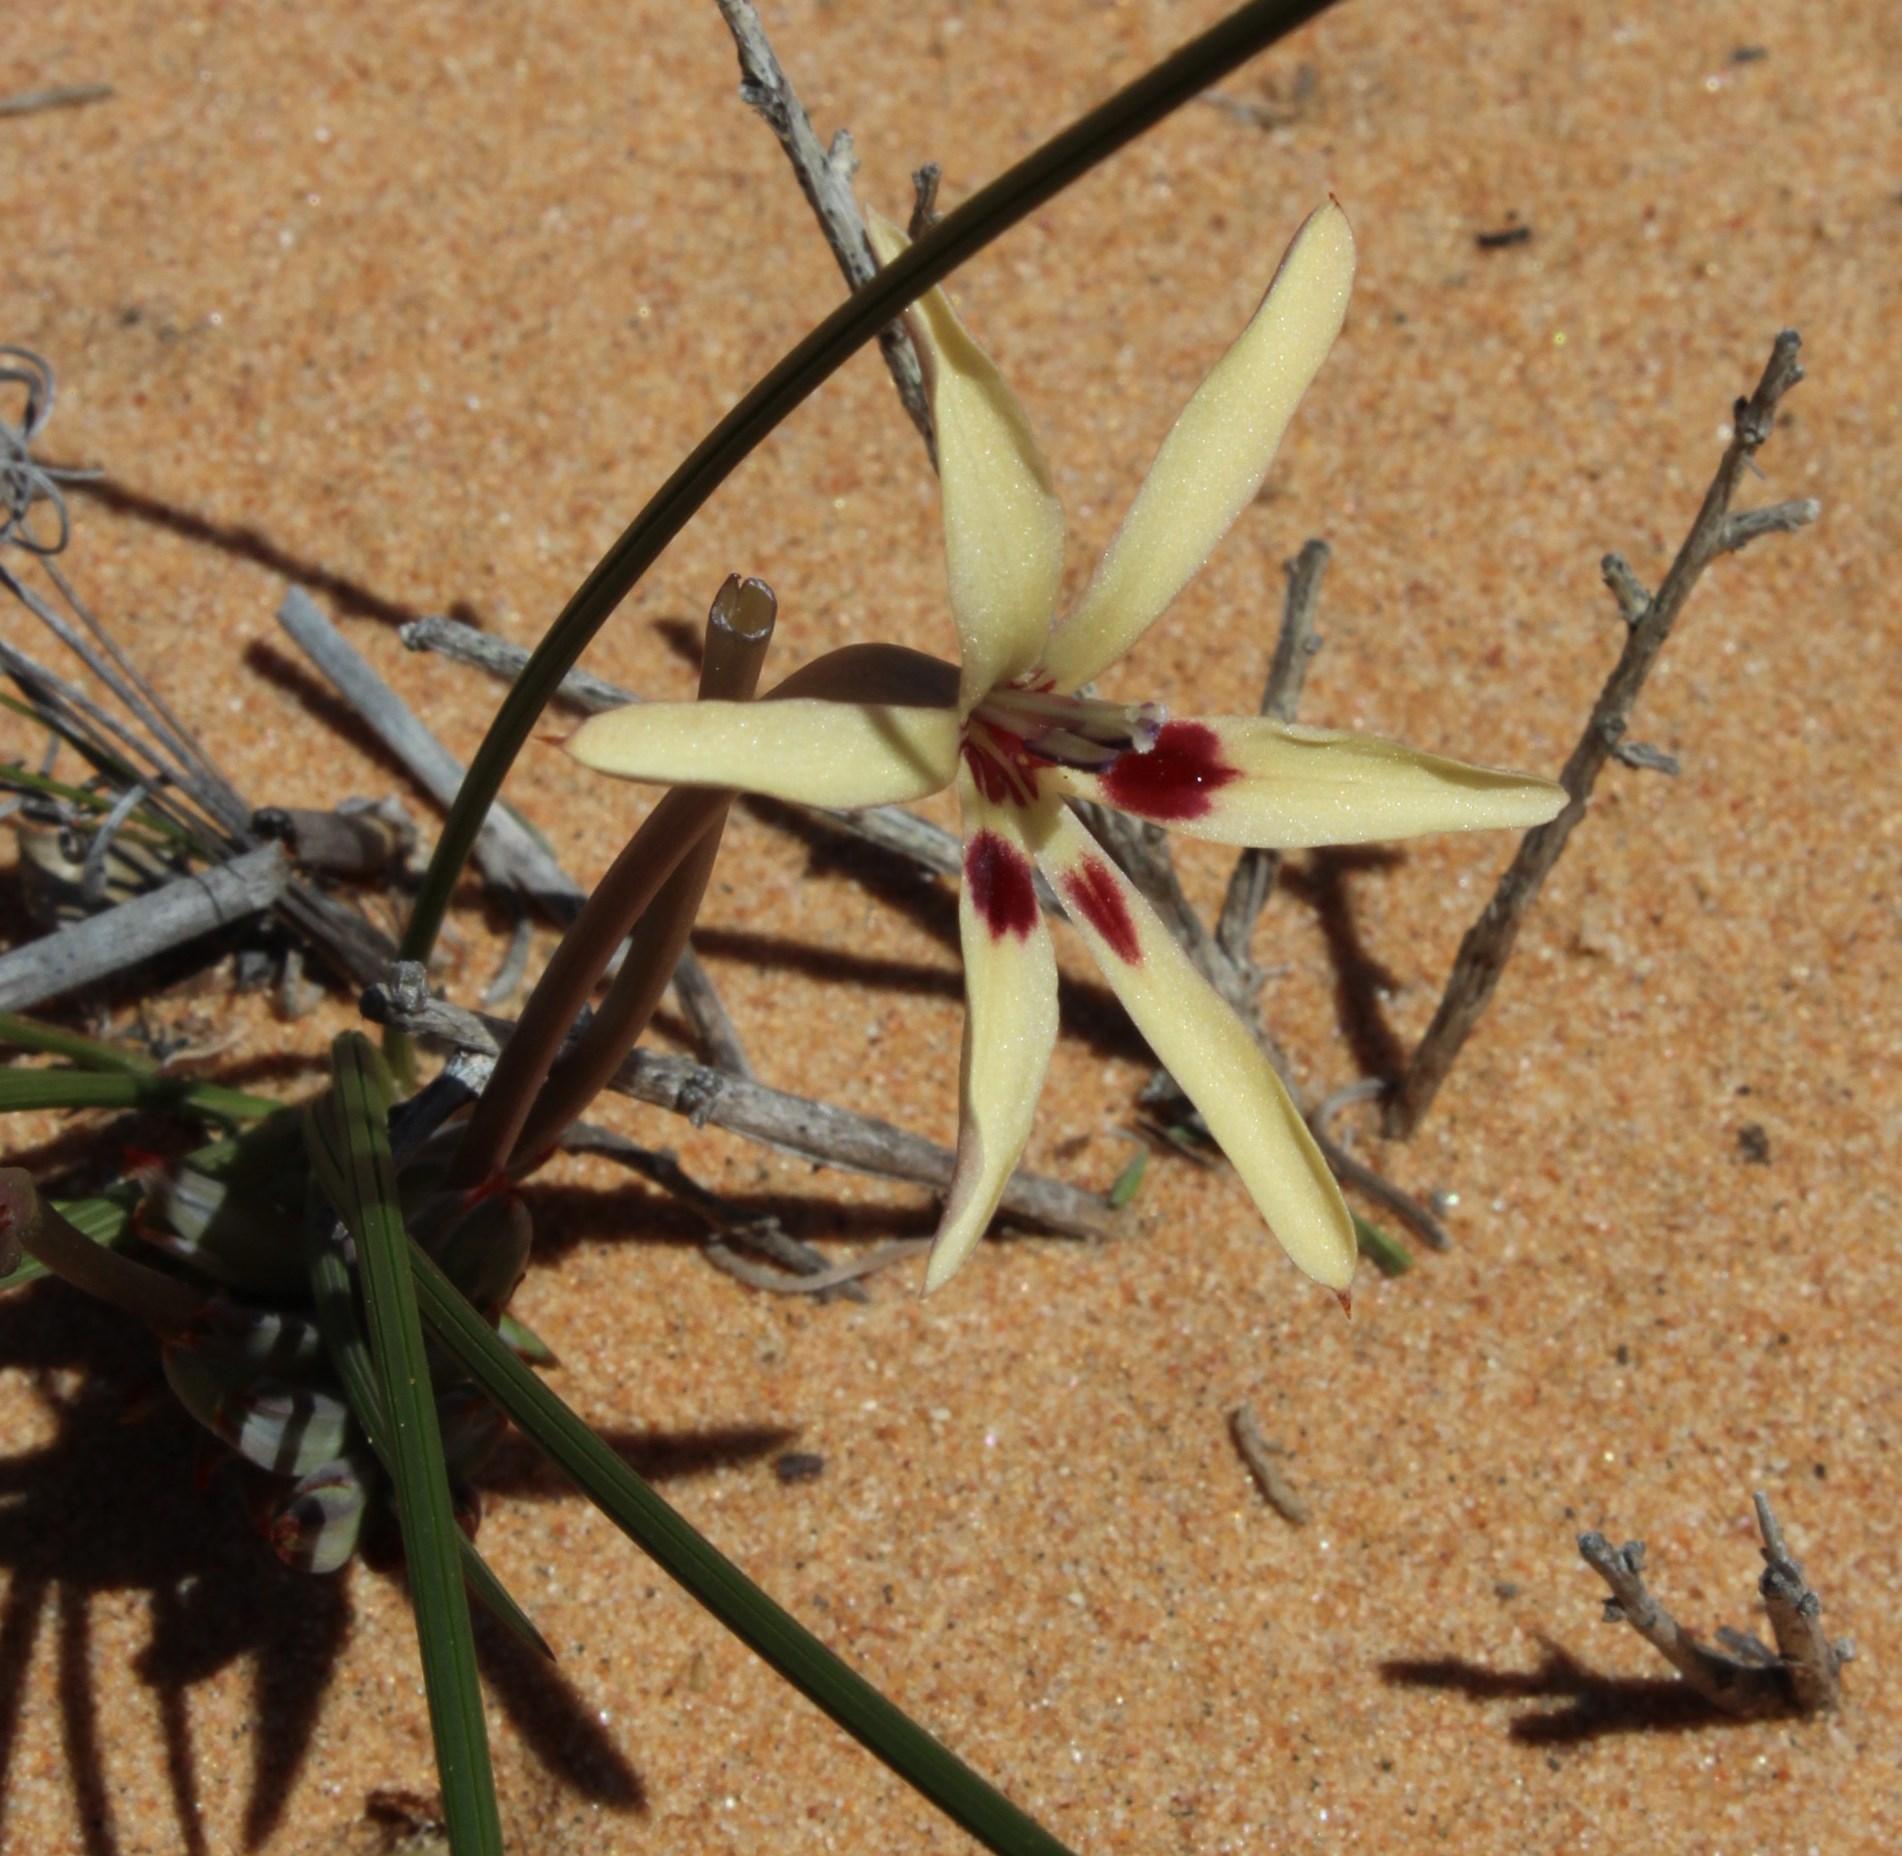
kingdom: Plantae
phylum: Tracheophyta
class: Liliopsida
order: Asparagales
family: Iridaceae
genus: Babiana
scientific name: Babiana brachystachys
